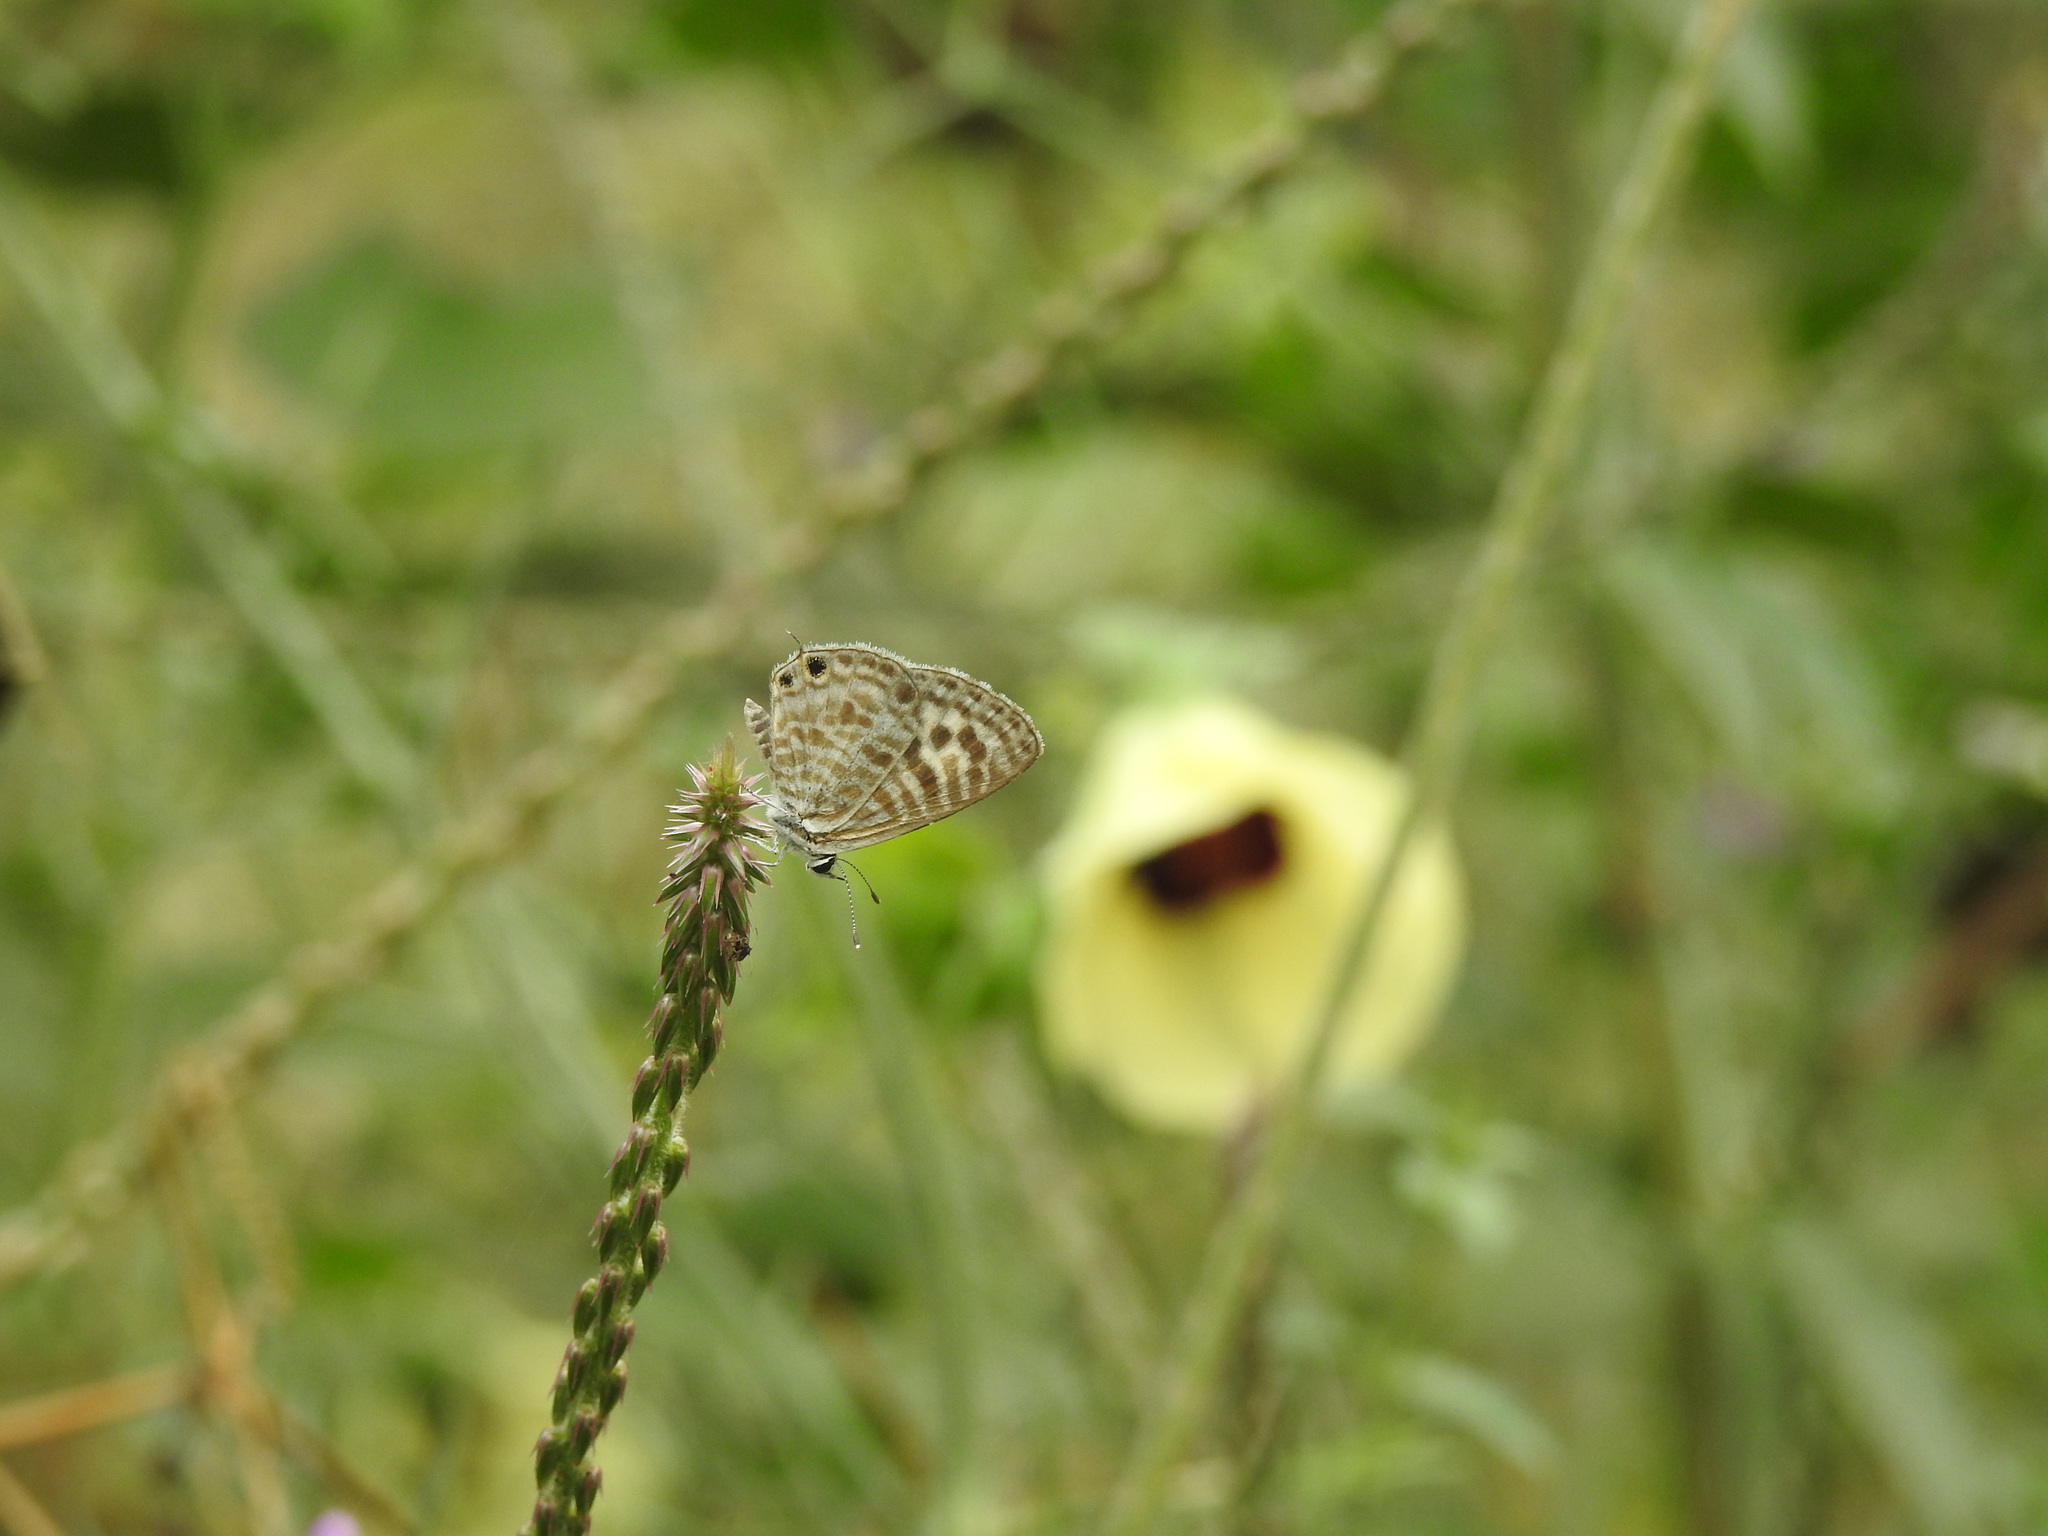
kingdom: Animalia
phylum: Arthropoda
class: Insecta
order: Lepidoptera
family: Lycaenidae
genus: Leptotes
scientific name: Leptotes plinius
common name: Zebra blue
